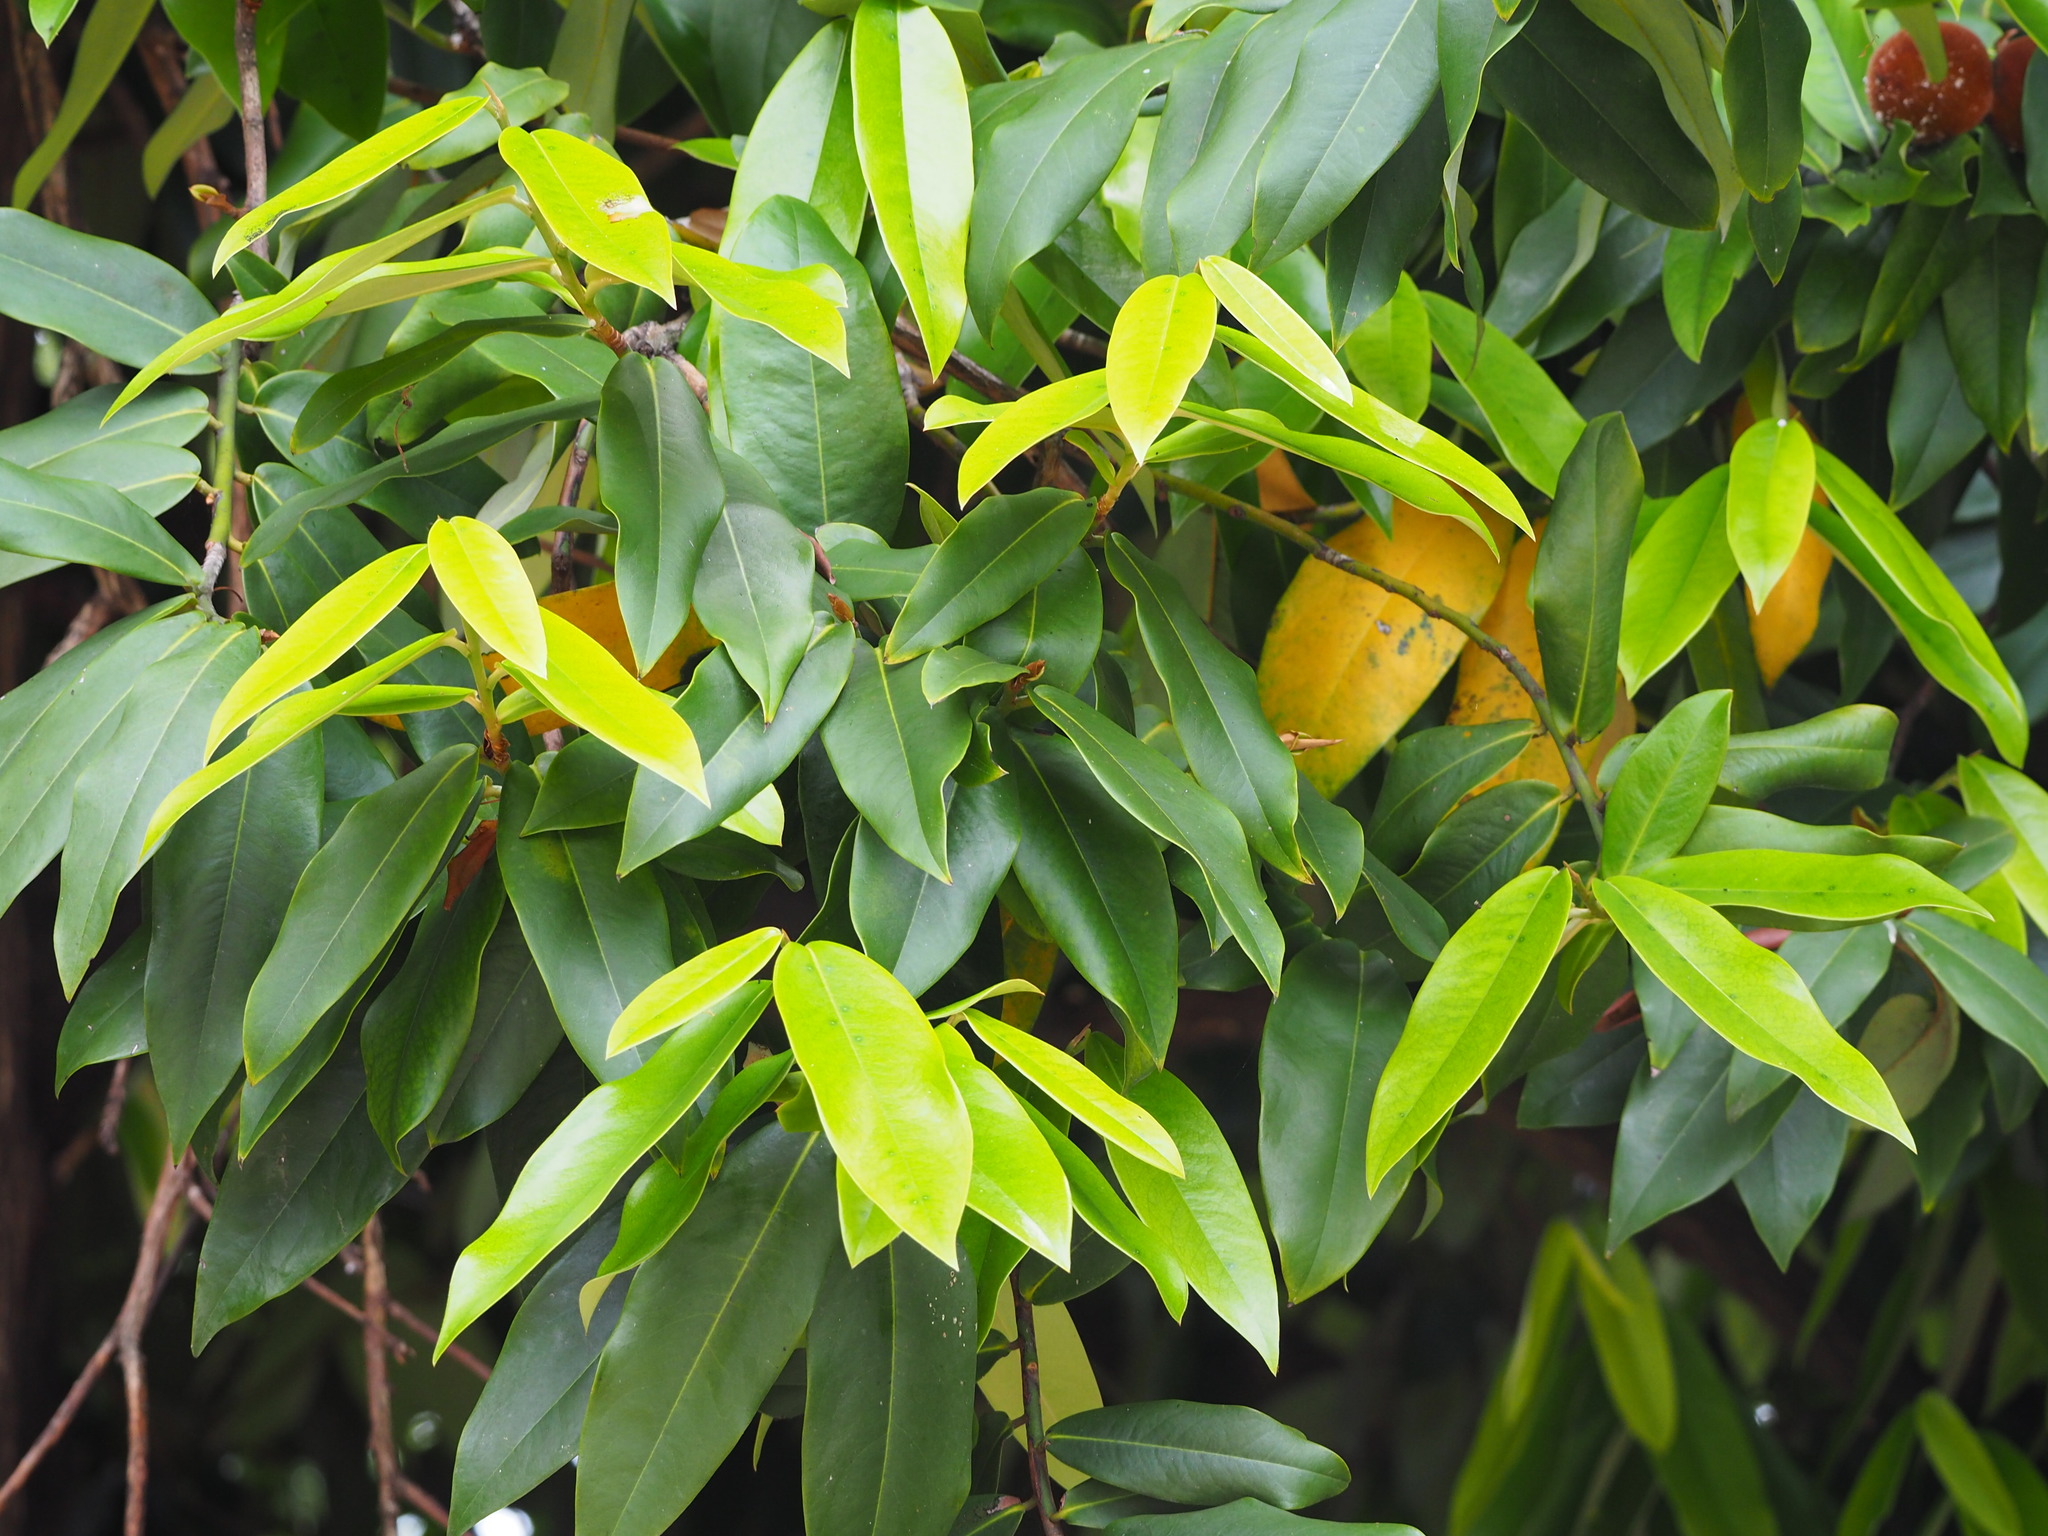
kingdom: Plantae
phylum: Tracheophyta
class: Magnoliopsida
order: Ericales
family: Ebenaceae
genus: Diospyros
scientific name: Diospyros blancoi
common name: Mabola-tree
